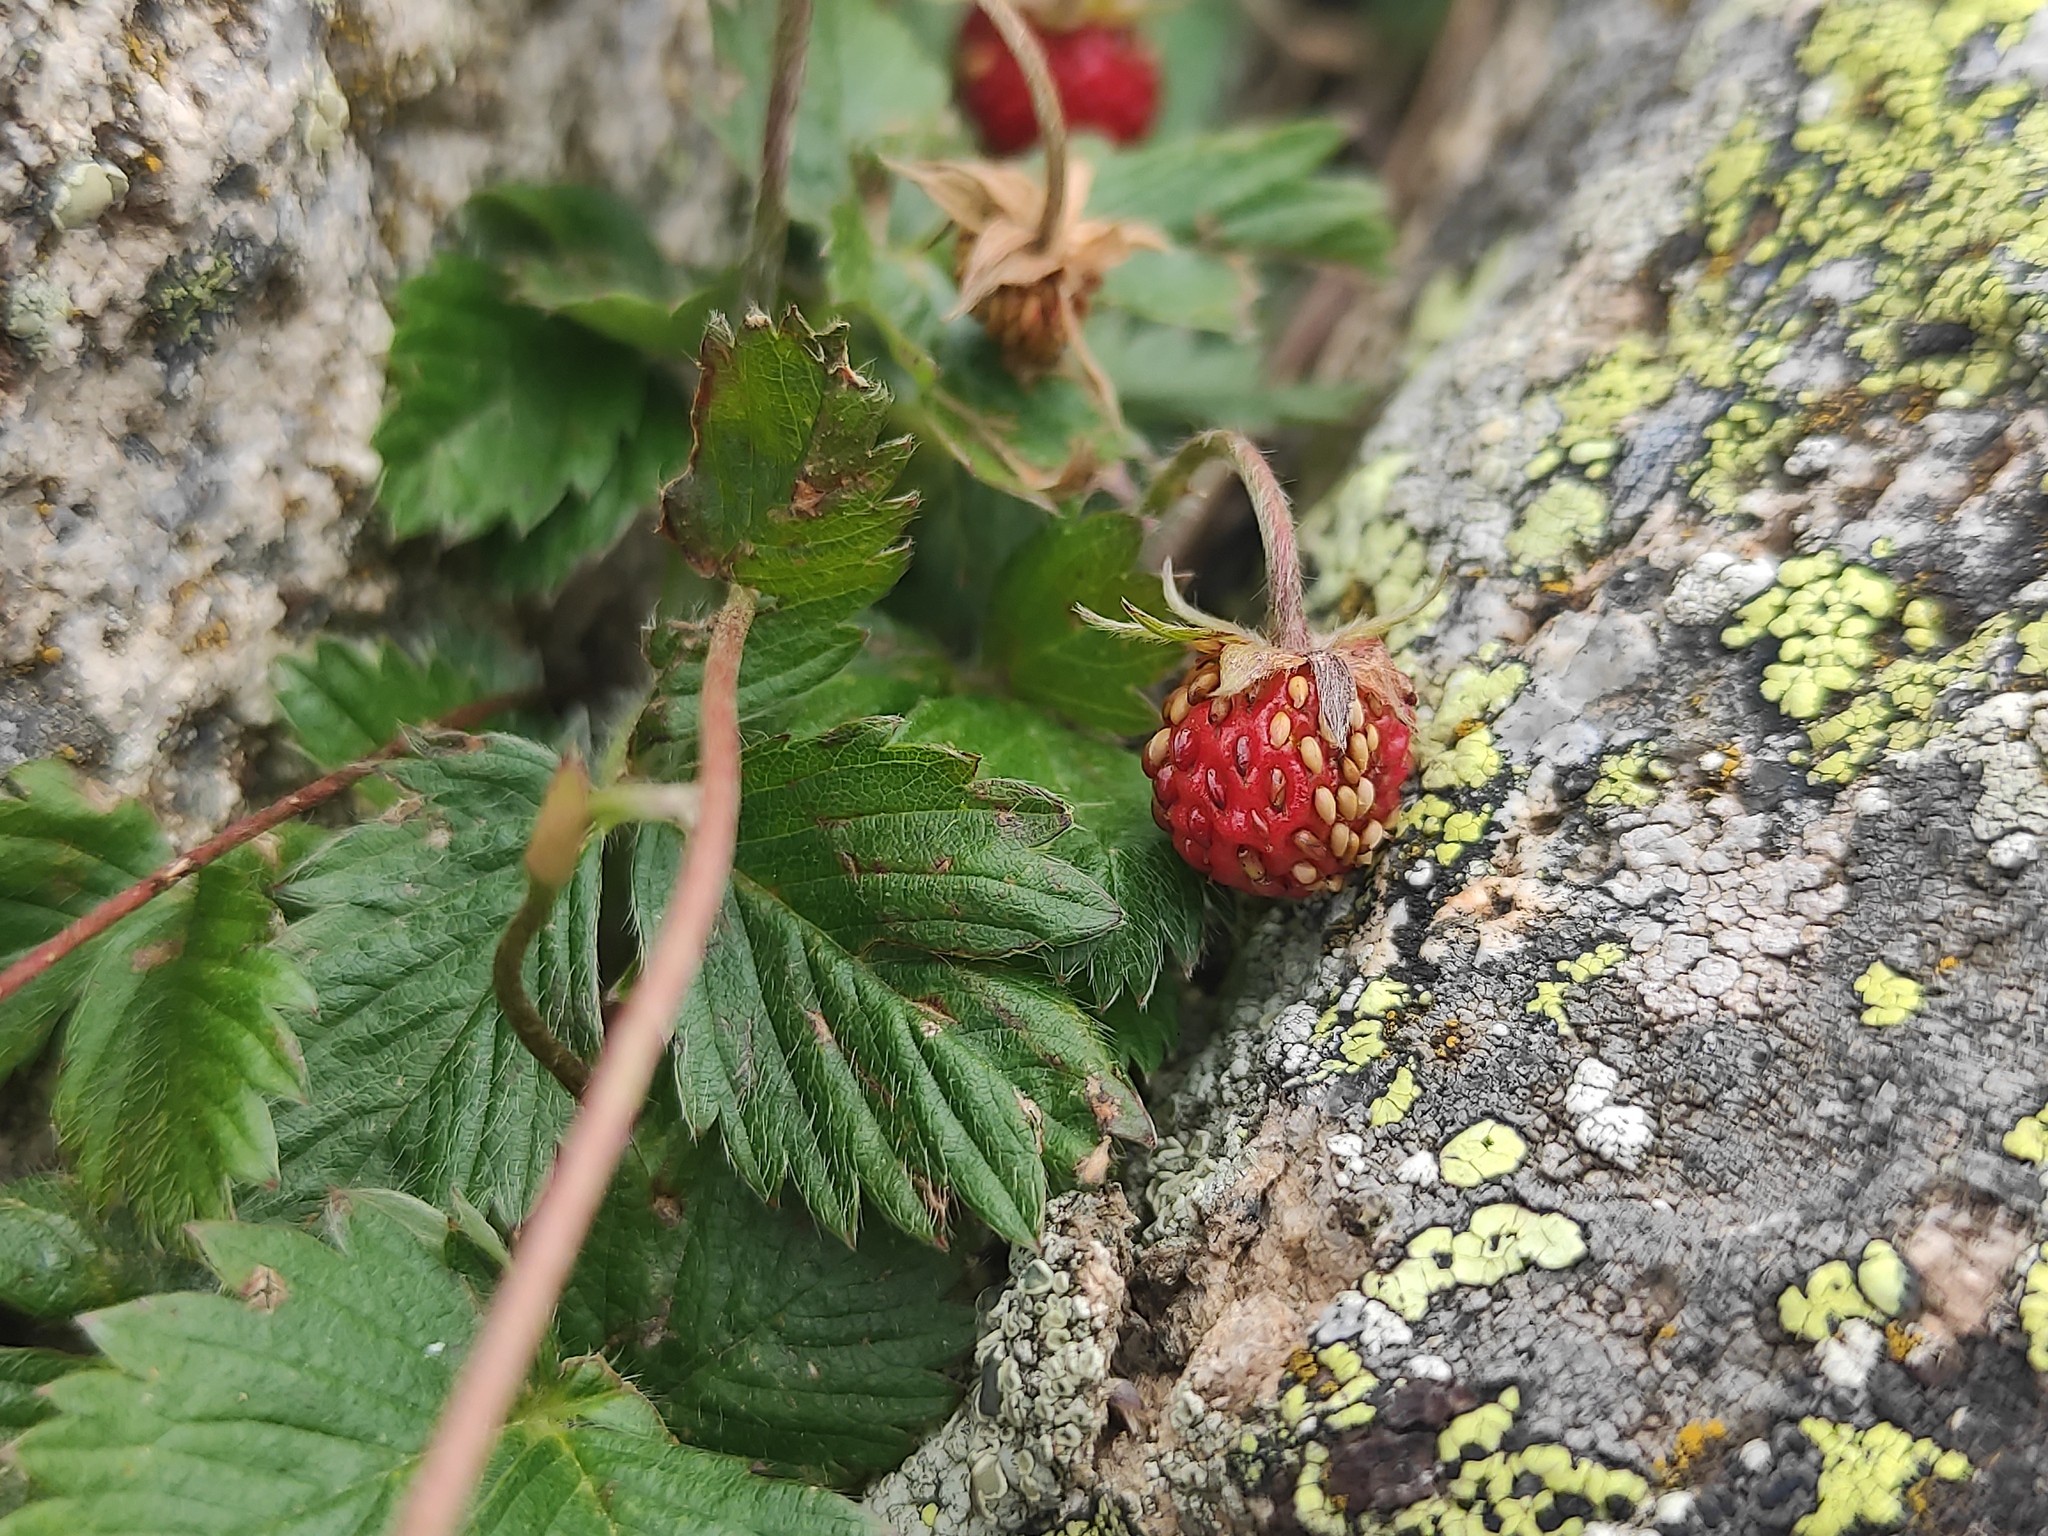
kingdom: Plantae
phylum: Tracheophyta
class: Magnoliopsida
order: Rosales
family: Rosaceae
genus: Fragaria
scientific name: Fragaria vesca
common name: Wild strawberry
